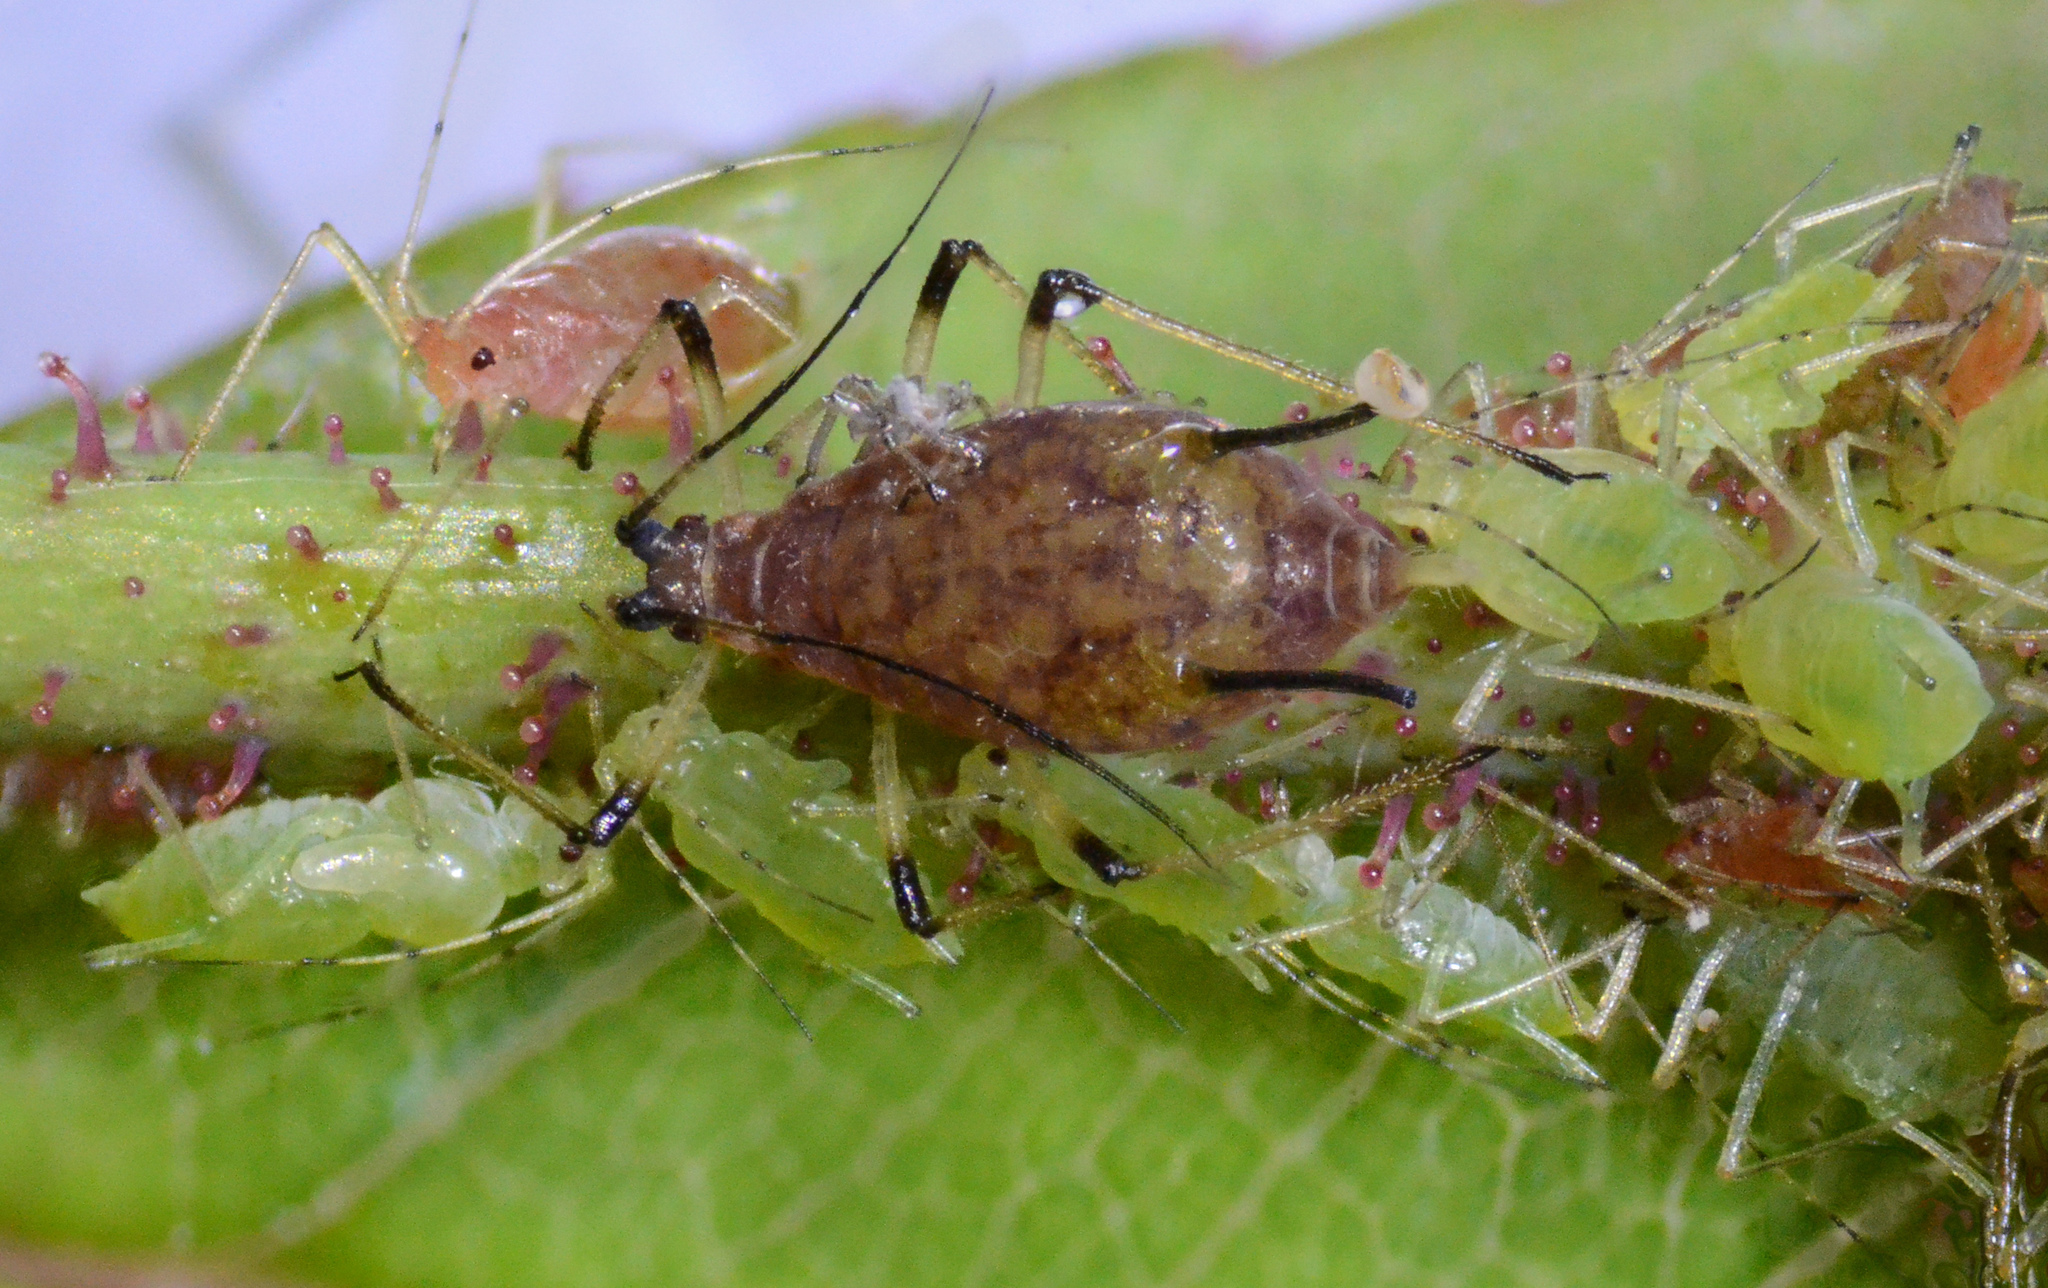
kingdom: Animalia
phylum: Arthropoda
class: Insecta
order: Hemiptera
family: Aphididae
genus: Macrosiphum
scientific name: Macrosiphum rosae
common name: Rose aphid
